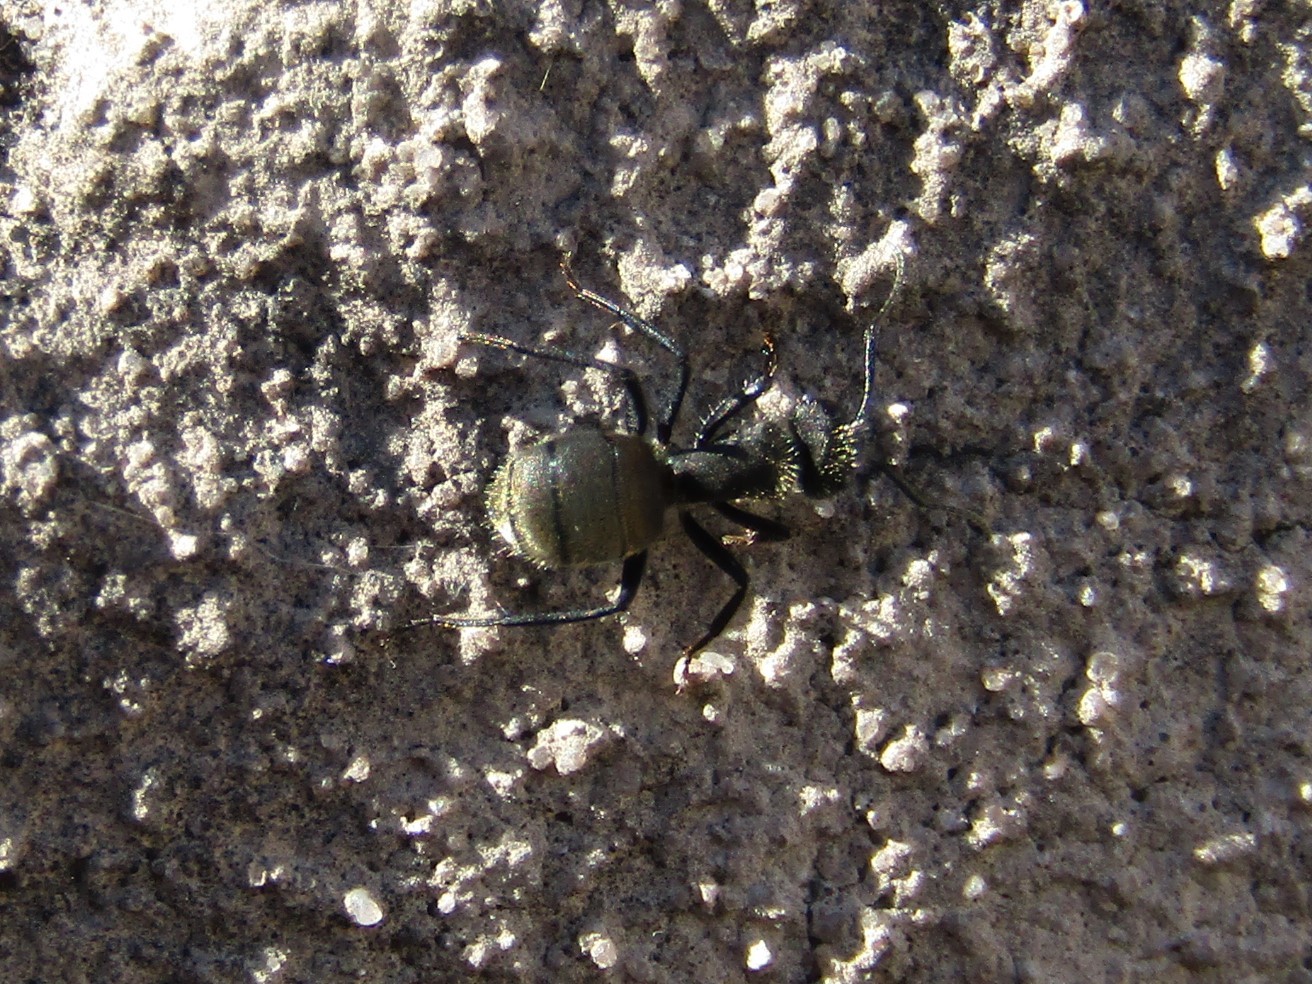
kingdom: Animalia
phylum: Arthropoda
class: Insecta
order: Hymenoptera
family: Formicidae
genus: Camponotus
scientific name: Camponotus mus
